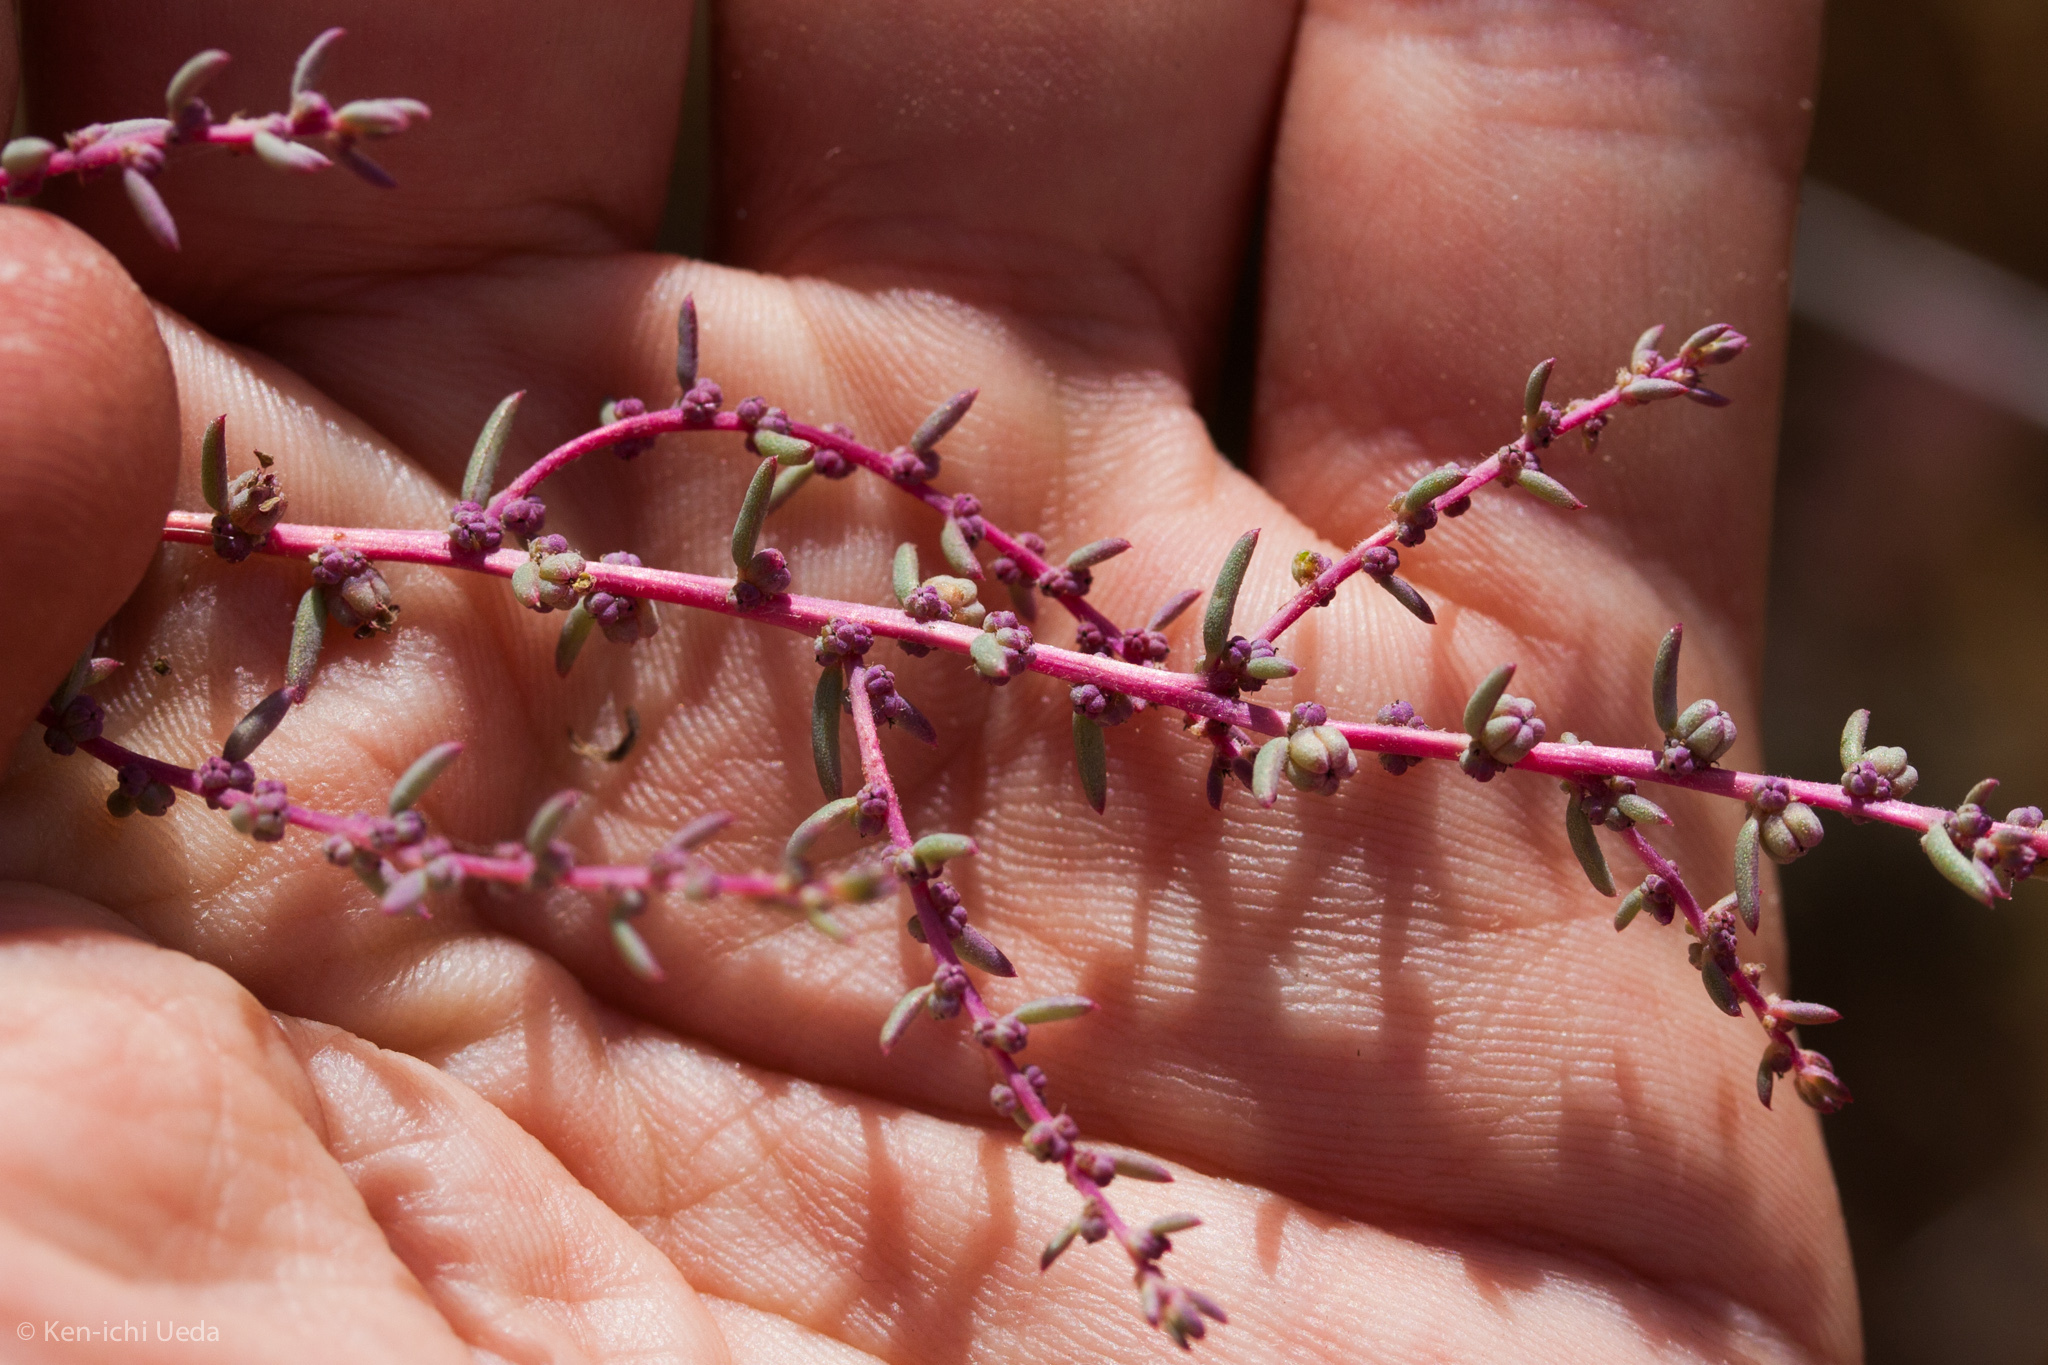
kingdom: Plantae
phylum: Tracheophyta
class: Magnoliopsida
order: Caryophyllales
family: Amaranthaceae
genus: Suaeda
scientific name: Suaeda nigra
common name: Bush seepweed
